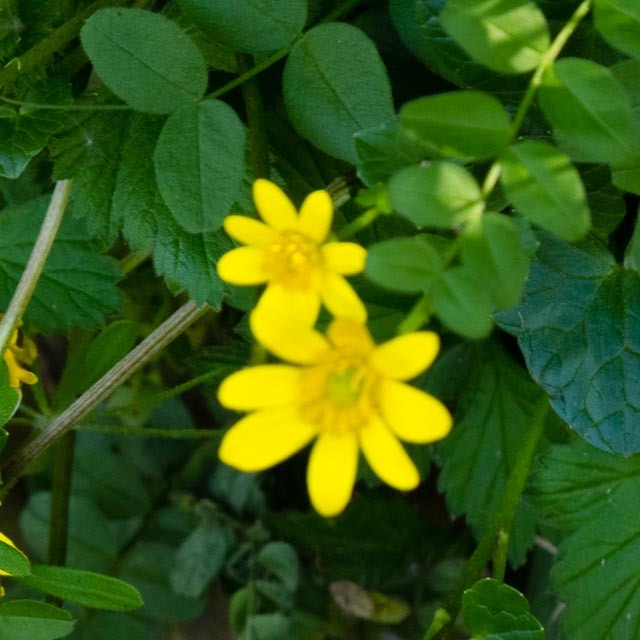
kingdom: Plantae
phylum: Tracheophyta
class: Magnoliopsida
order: Ranunculales
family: Ranunculaceae
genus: Ficaria
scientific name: Ficaria verna
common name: Lesser celandine
